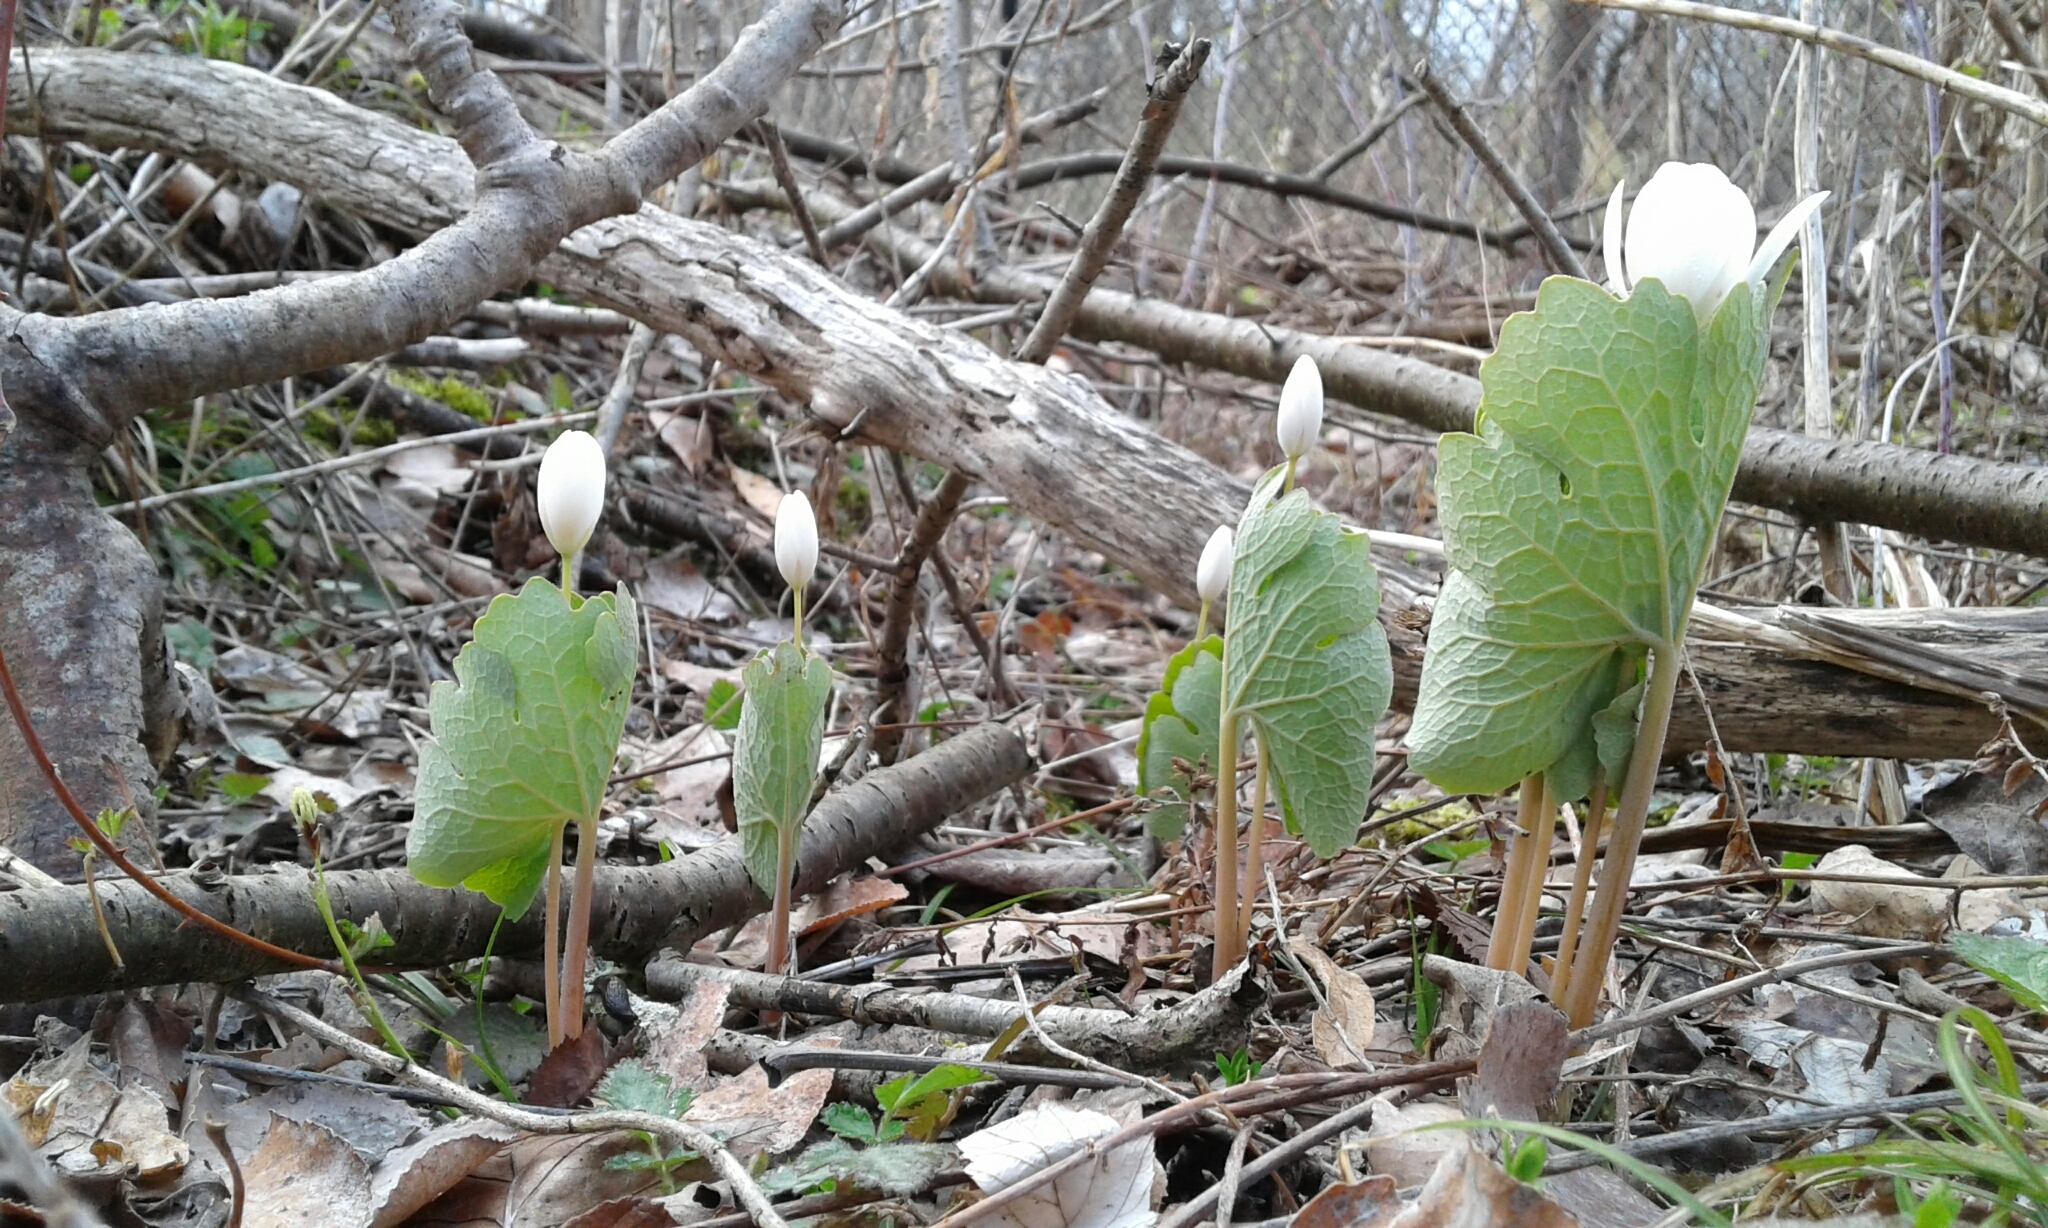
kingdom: Plantae
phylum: Tracheophyta
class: Magnoliopsida
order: Ranunculales
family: Papaveraceae
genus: Sanguinaria
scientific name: Sanguinaria canadensis
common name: Bloodroot
